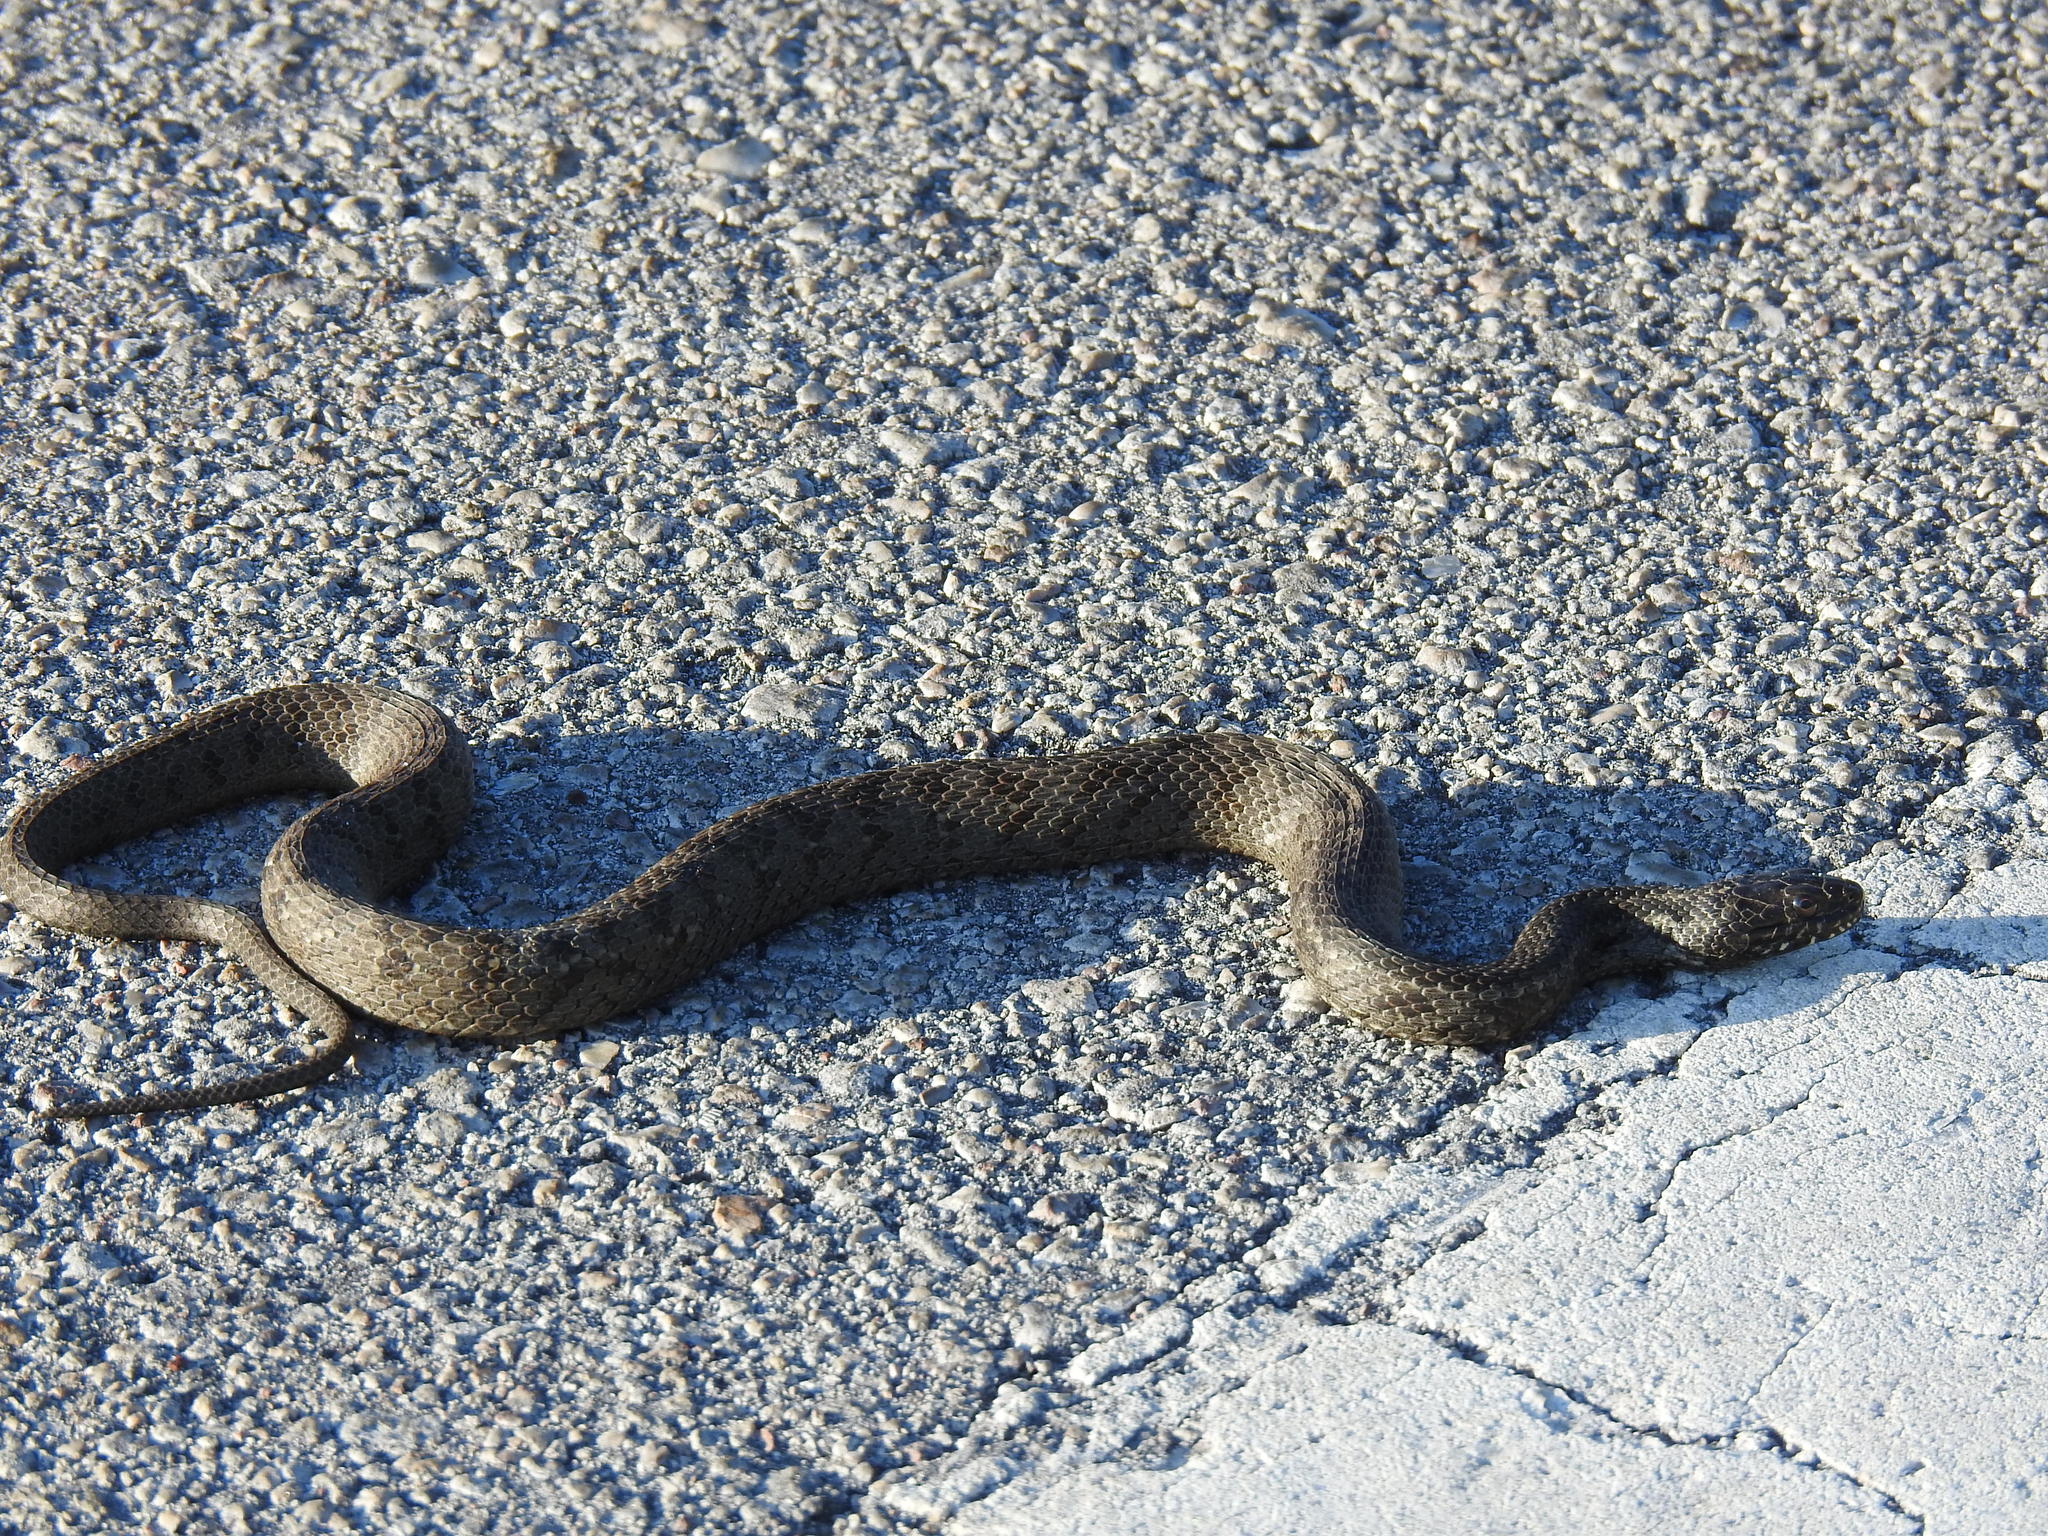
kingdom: Animalia
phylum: Chordata
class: Squamata
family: Colubridae
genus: Nerodia
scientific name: Nerodia clarkii
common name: Atlantic saltmarsh snake
